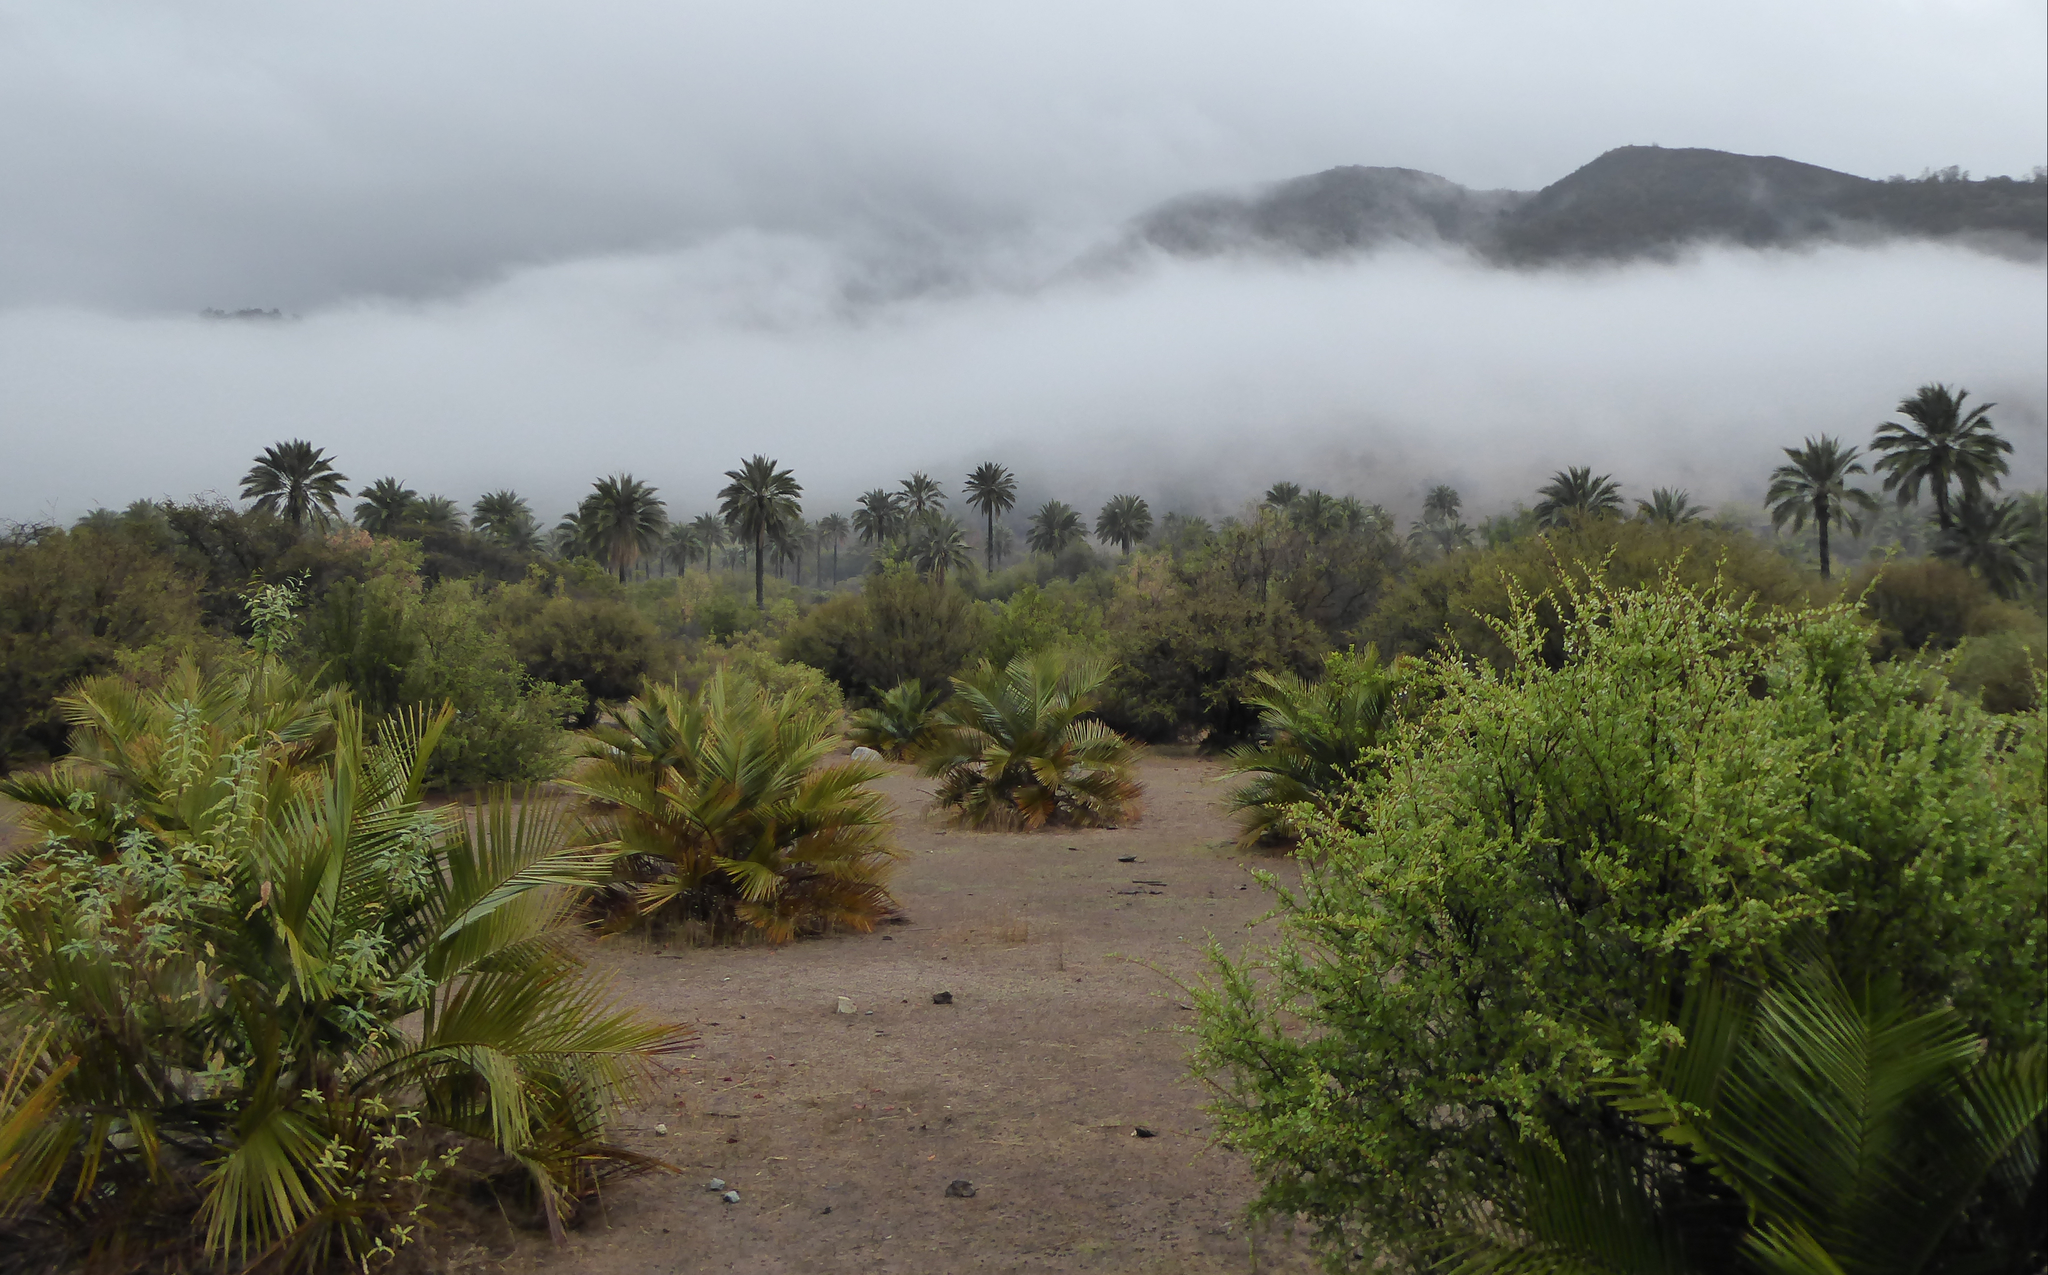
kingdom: Plantae
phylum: Tracheophyta
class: Liliopsida
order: Arecales
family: Arecaceae
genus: Jubaea
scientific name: Jubaea chilensis
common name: Coquito palm
